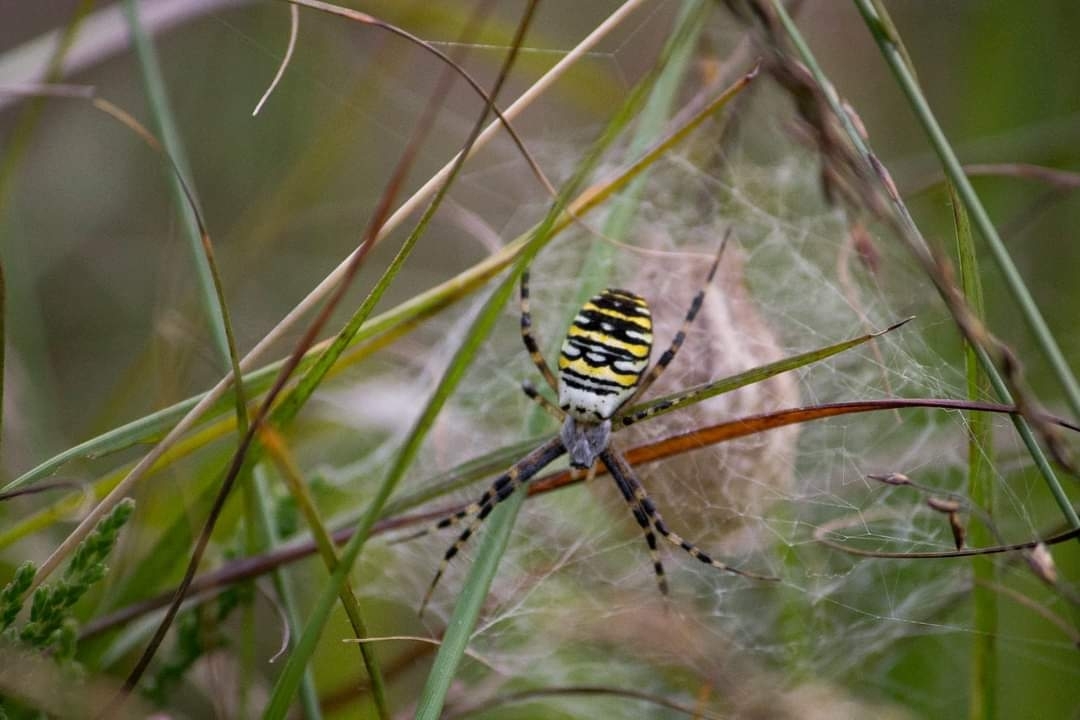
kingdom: Animalia
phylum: Arthropoda
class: Arachnida
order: Araneae
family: Araneidae
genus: Argiope
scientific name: Argiope bruennichi
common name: Wasp spider
